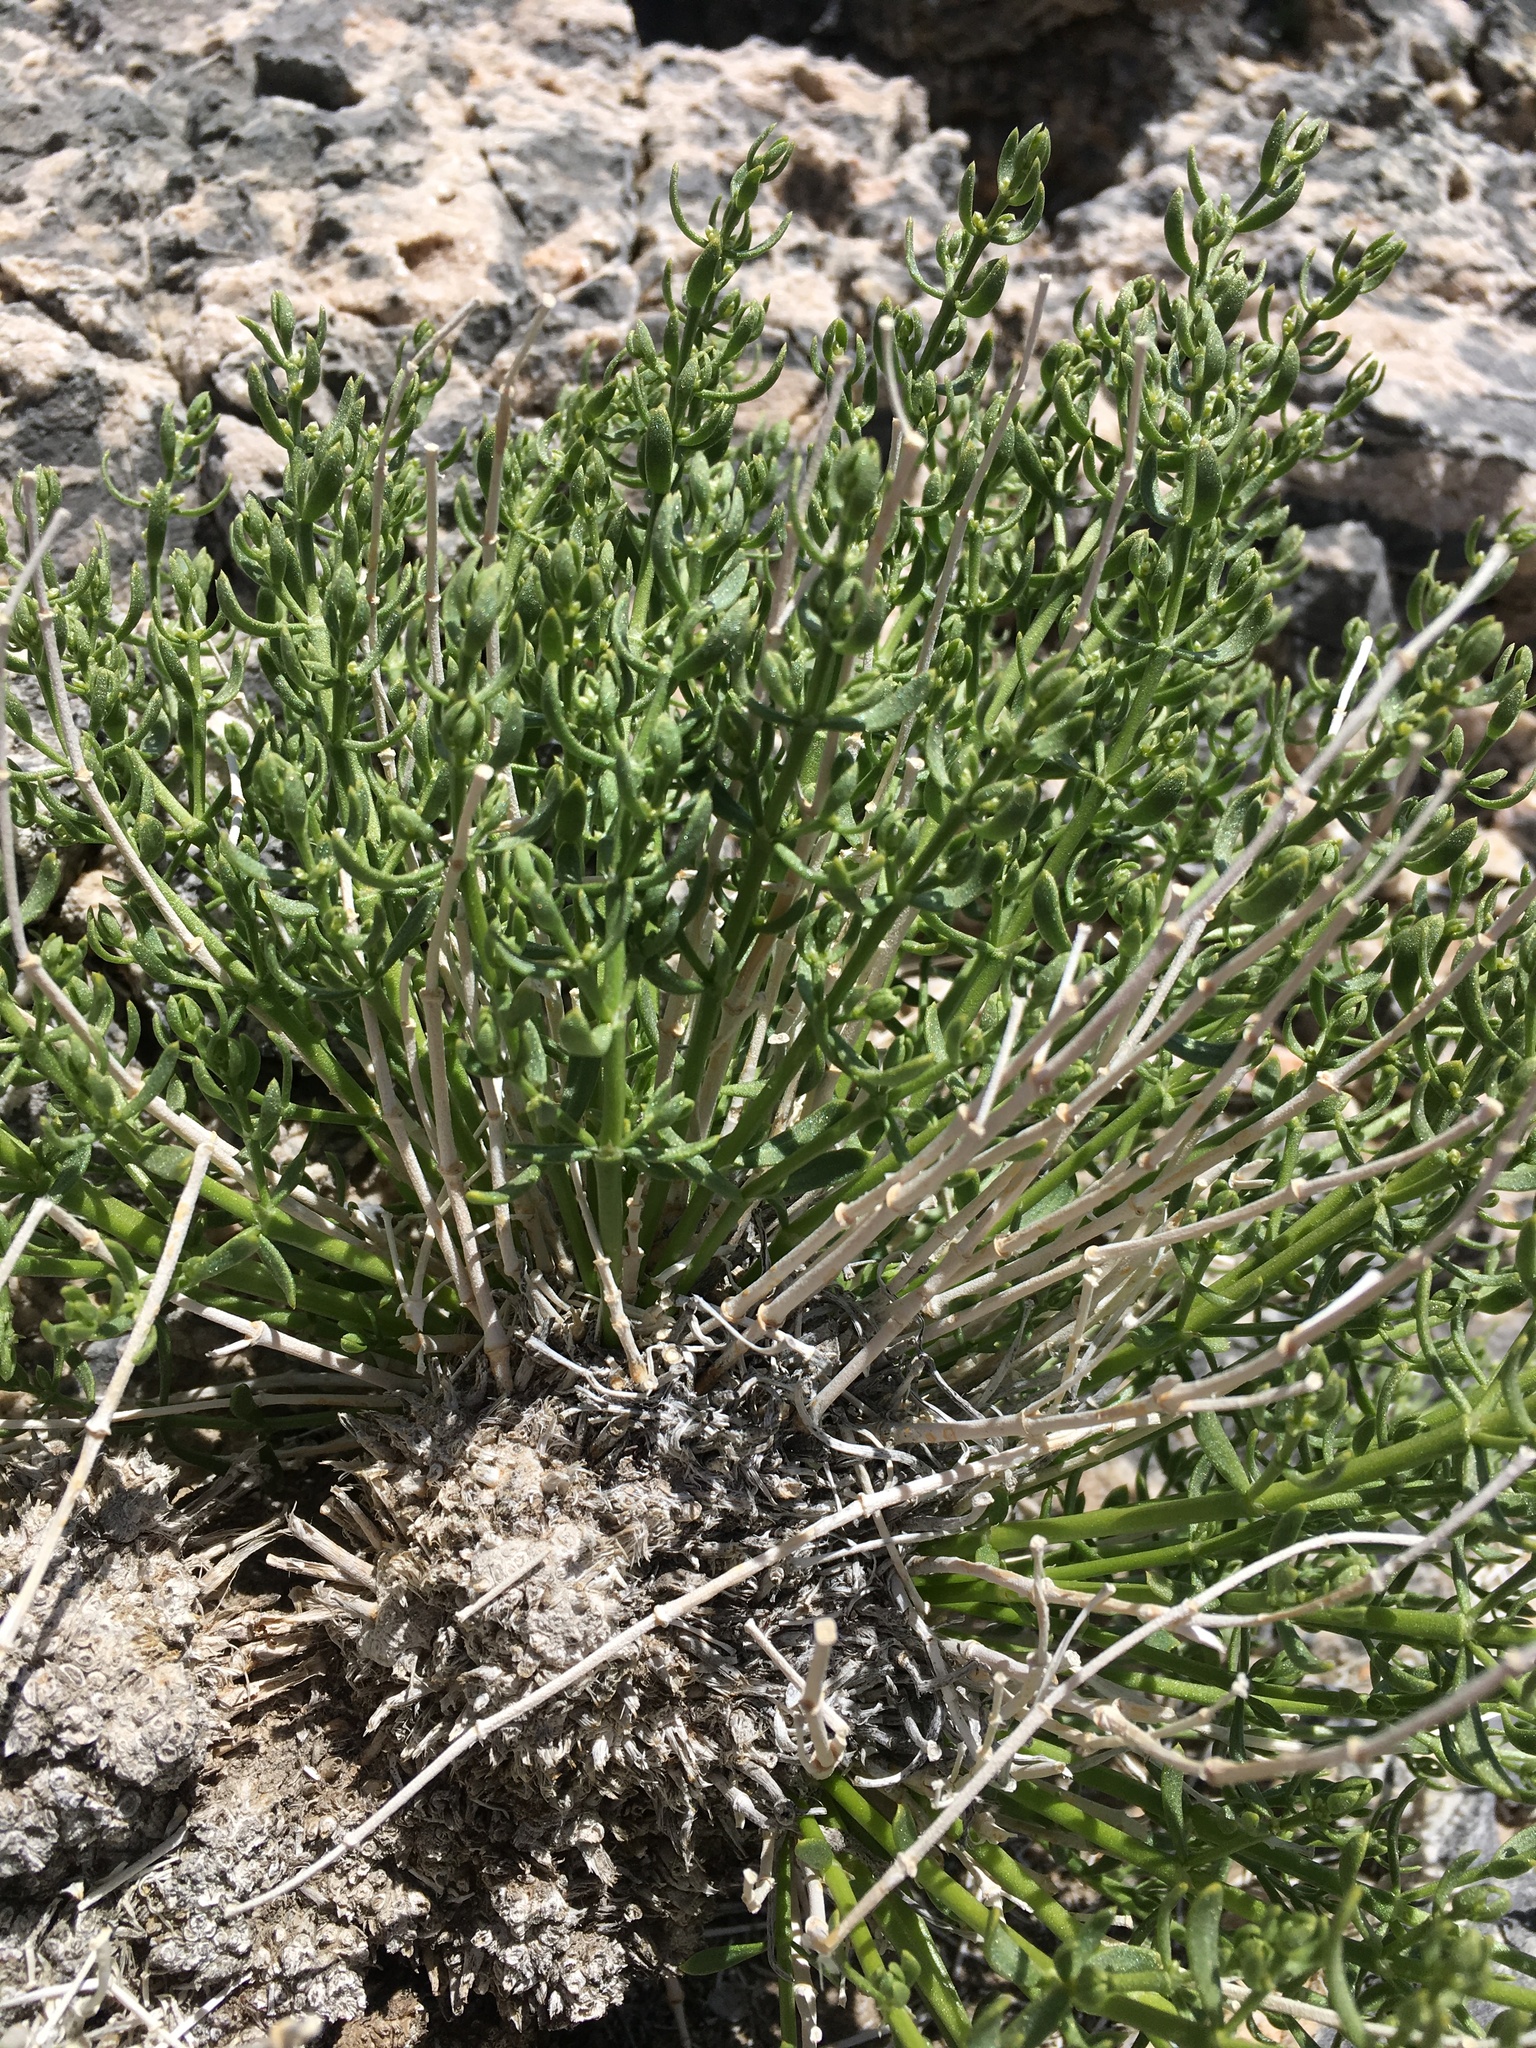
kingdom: Plantae
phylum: Tracheophyta
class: Magnoliopsida
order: Caryophyllales
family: Caryophyllaceae
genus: Scopulophila
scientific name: Scopulophila rixfordii
